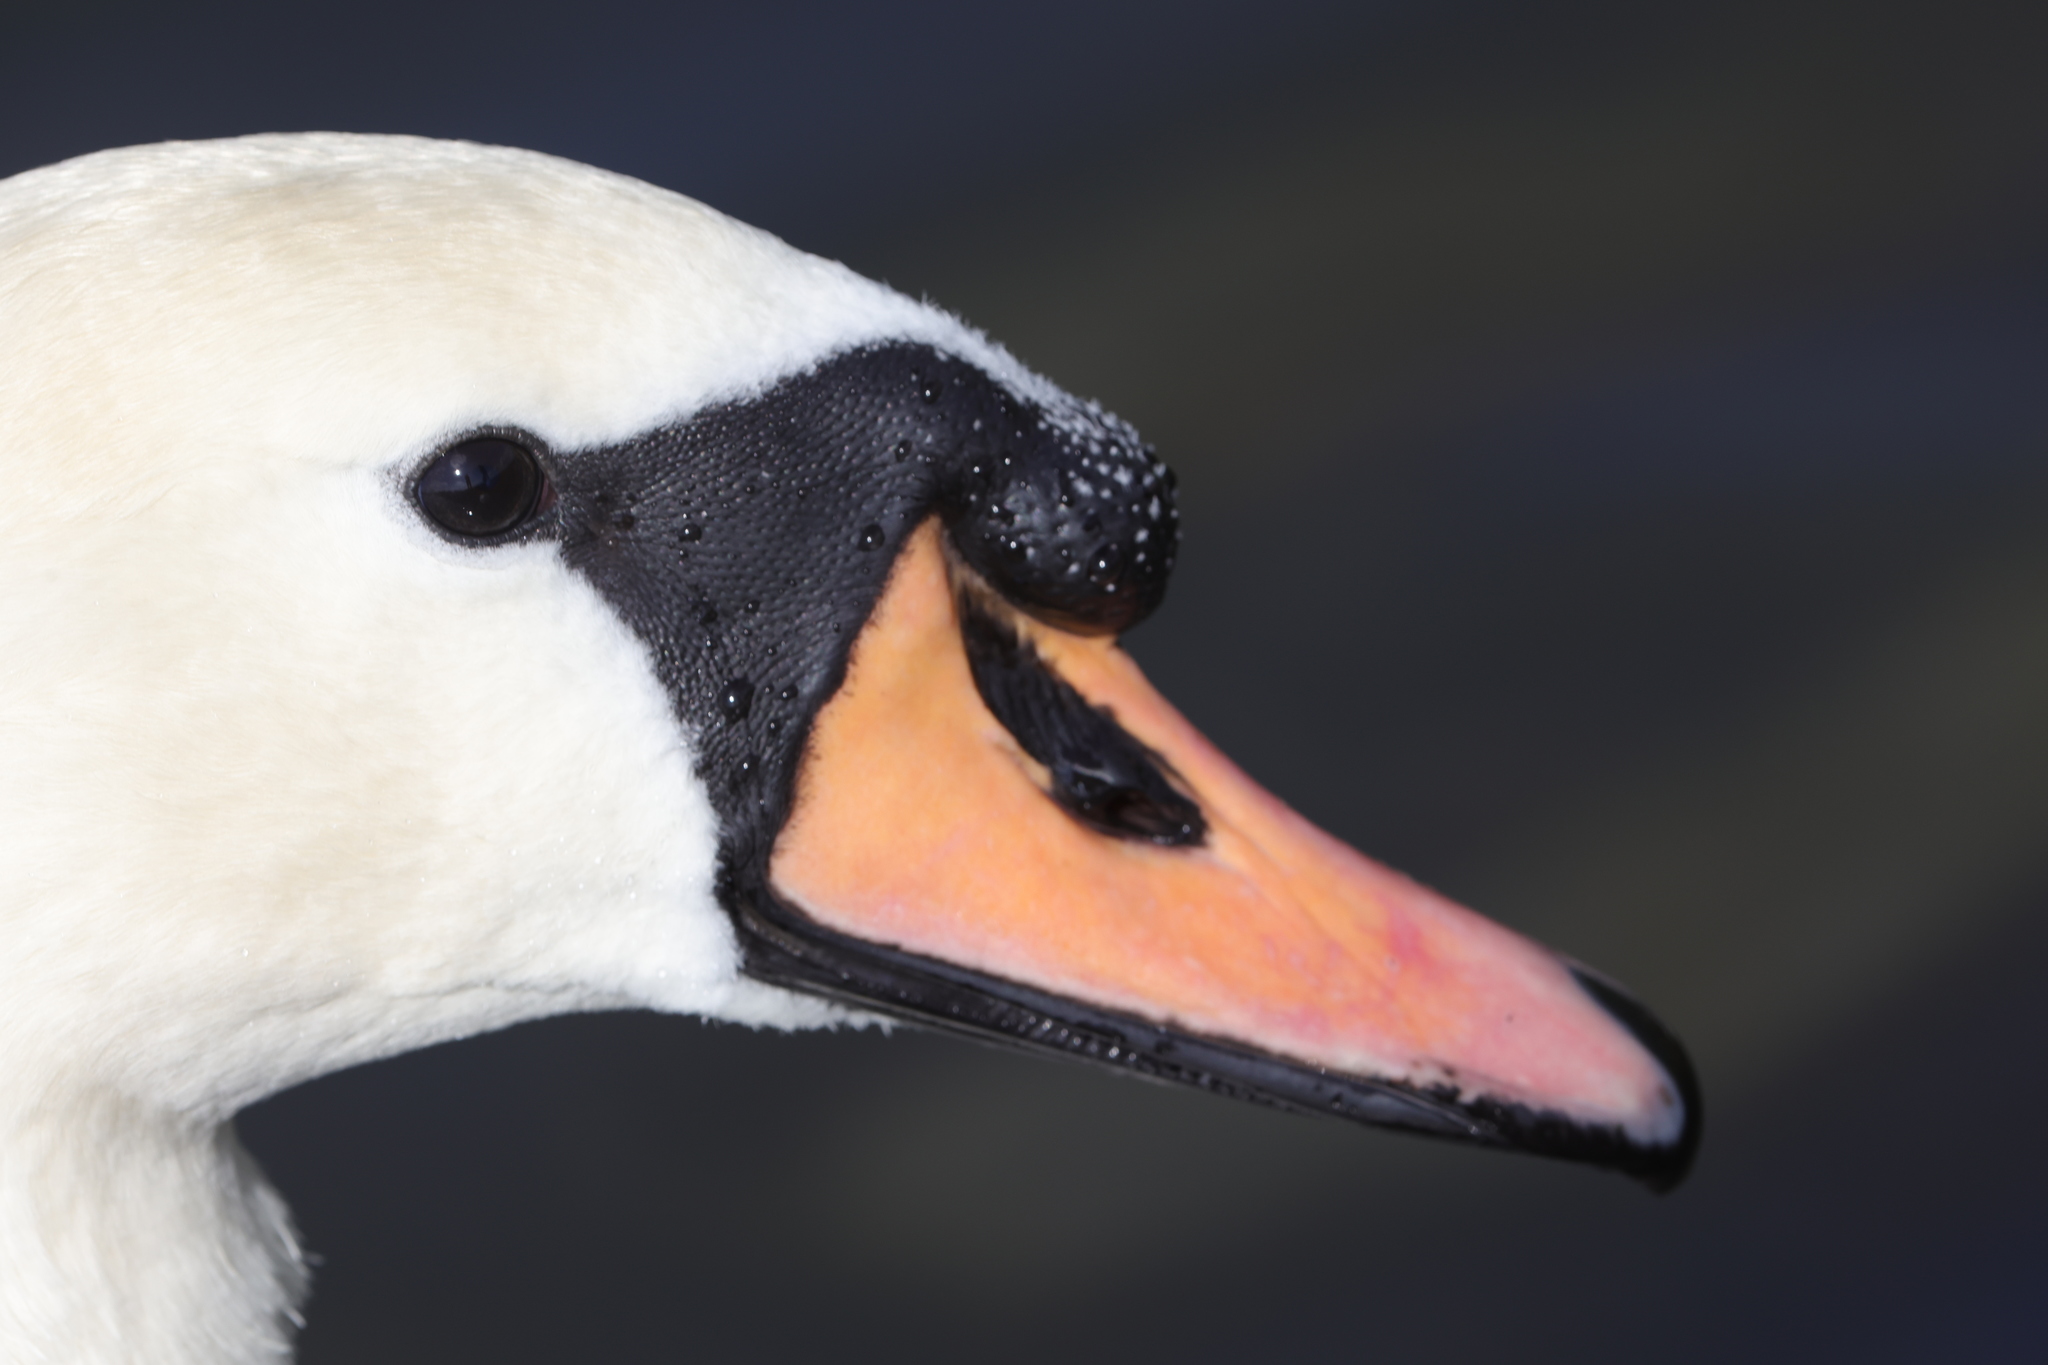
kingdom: Animalia
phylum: Chordata
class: Aves
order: Anseriformes
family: Anatidae
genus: Cygnus
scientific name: Cygnus olor
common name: Mute swan
